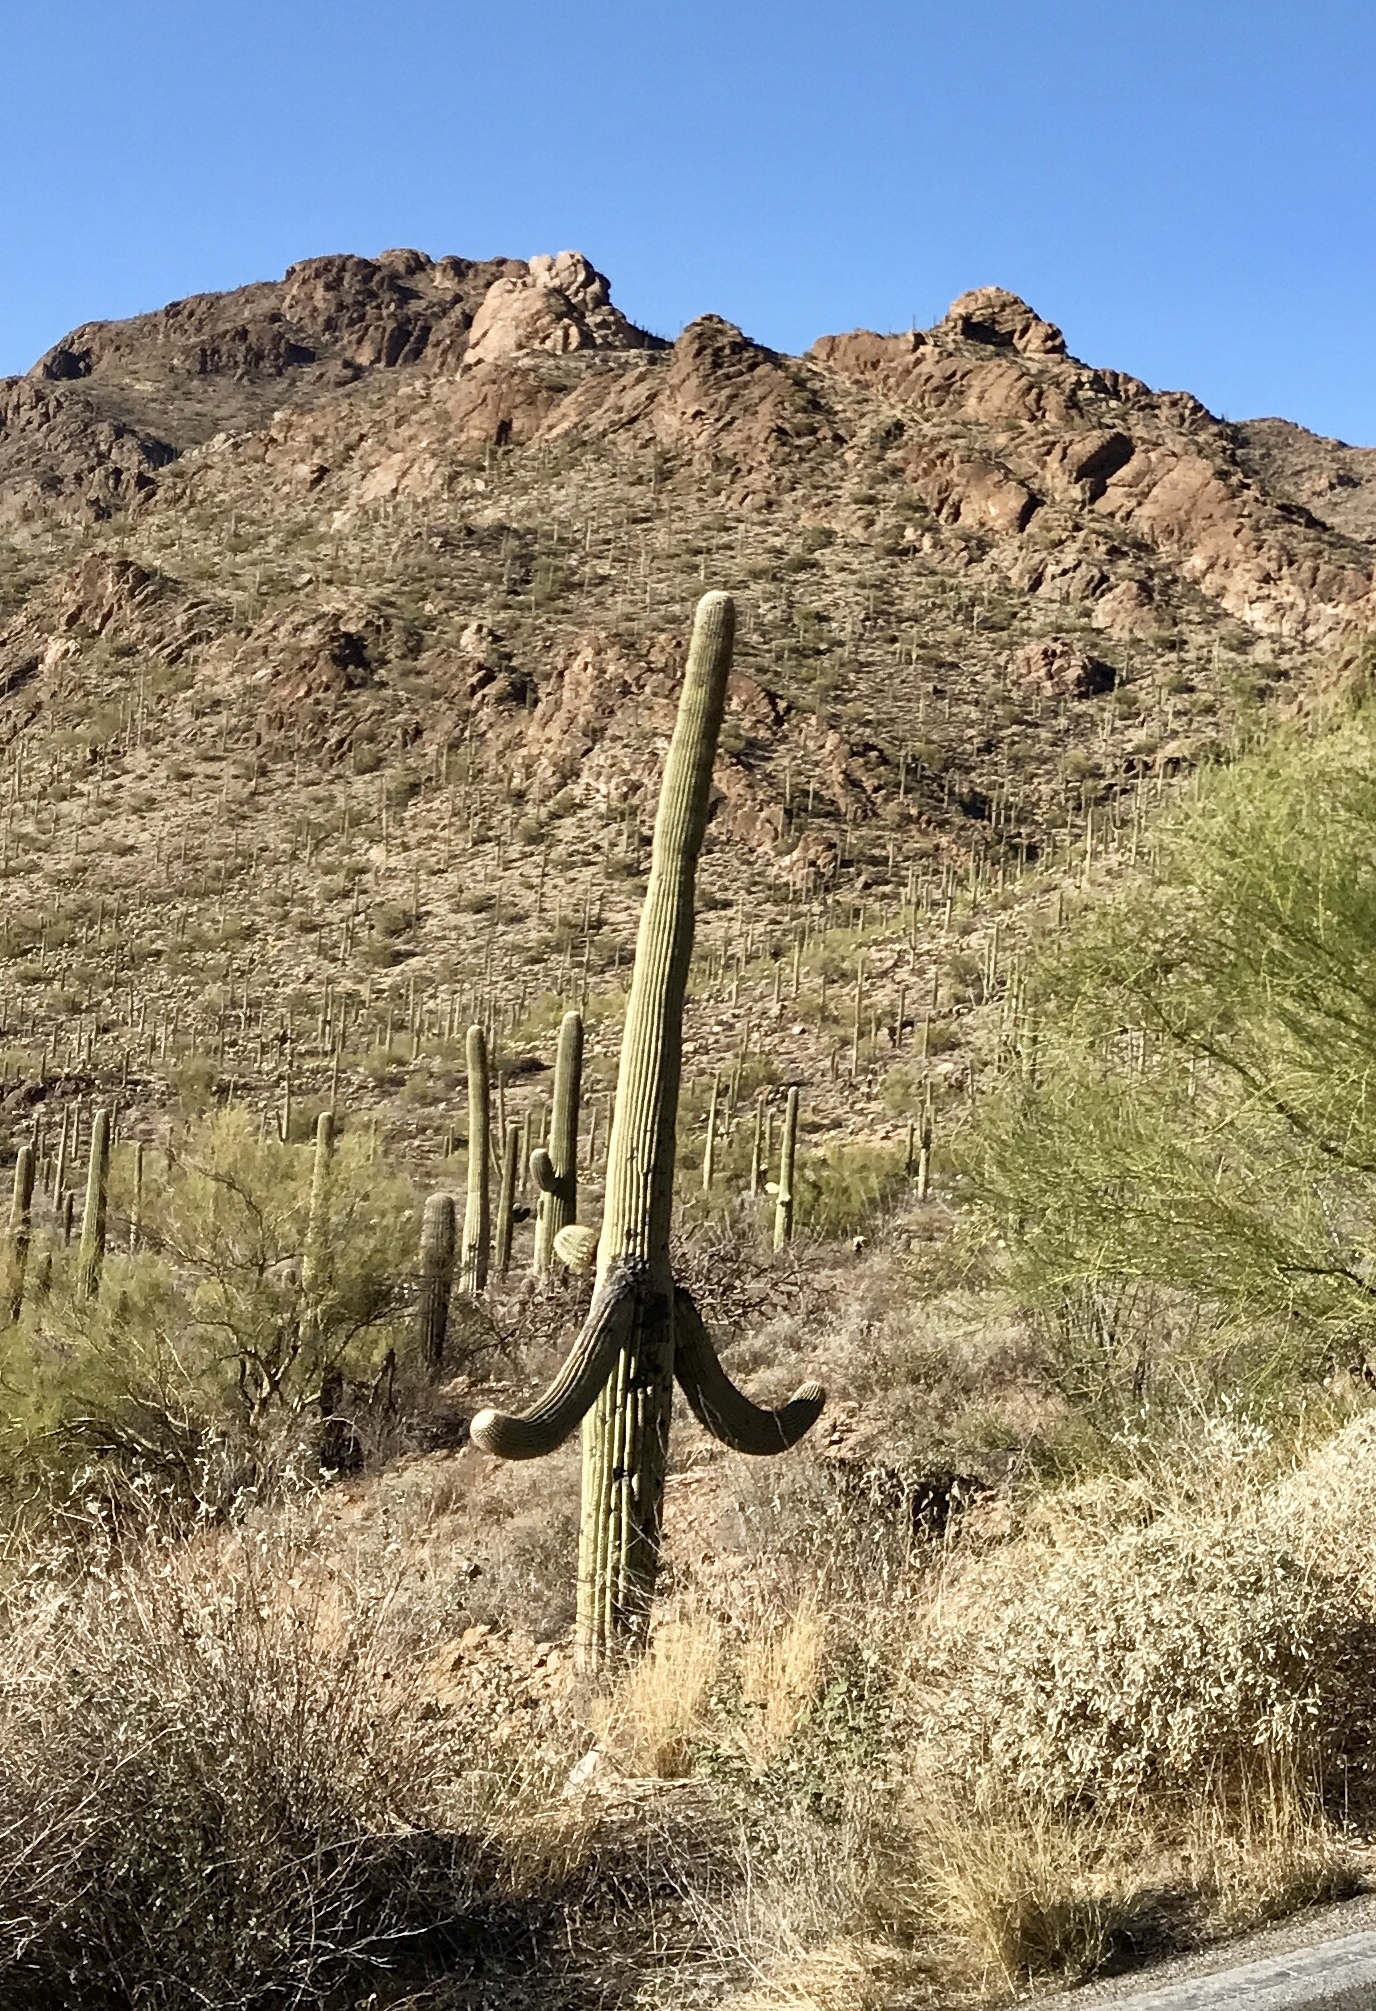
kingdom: Plantae
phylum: Tracheophyta
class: Magnoliopsida
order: Caryophyllales
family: Cactaceae
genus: Carnegiea
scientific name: Carnegiea gigantea
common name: Saguaro
